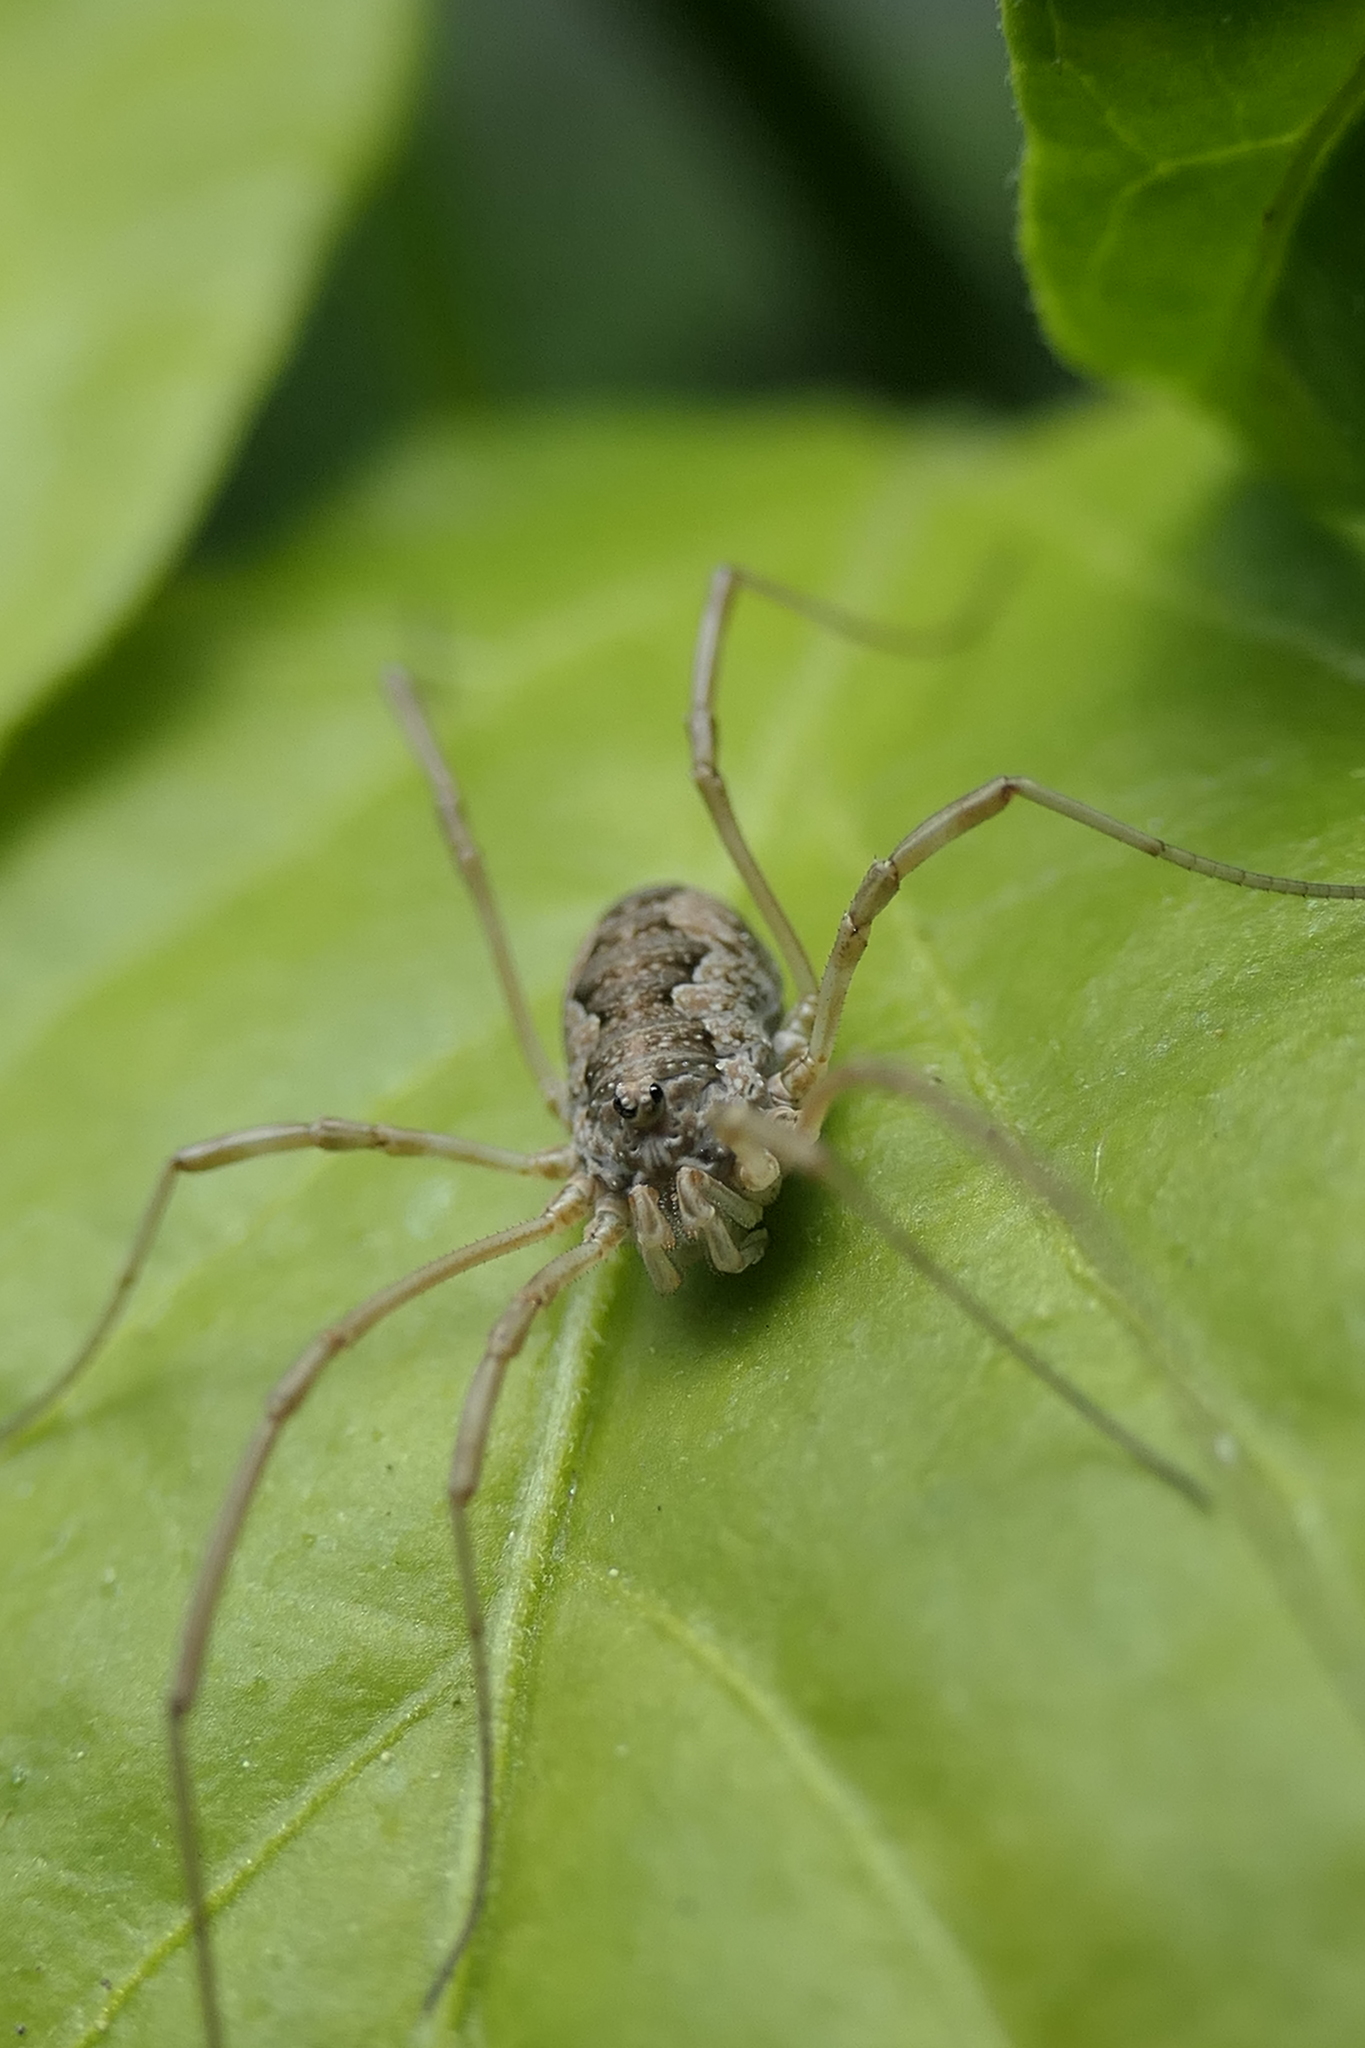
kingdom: Animalia
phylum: Arthropoda
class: Arachnida
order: Opiliones
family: Phalangiidae
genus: Phalangium
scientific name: Phalangium opilio
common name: Daddy longleg
